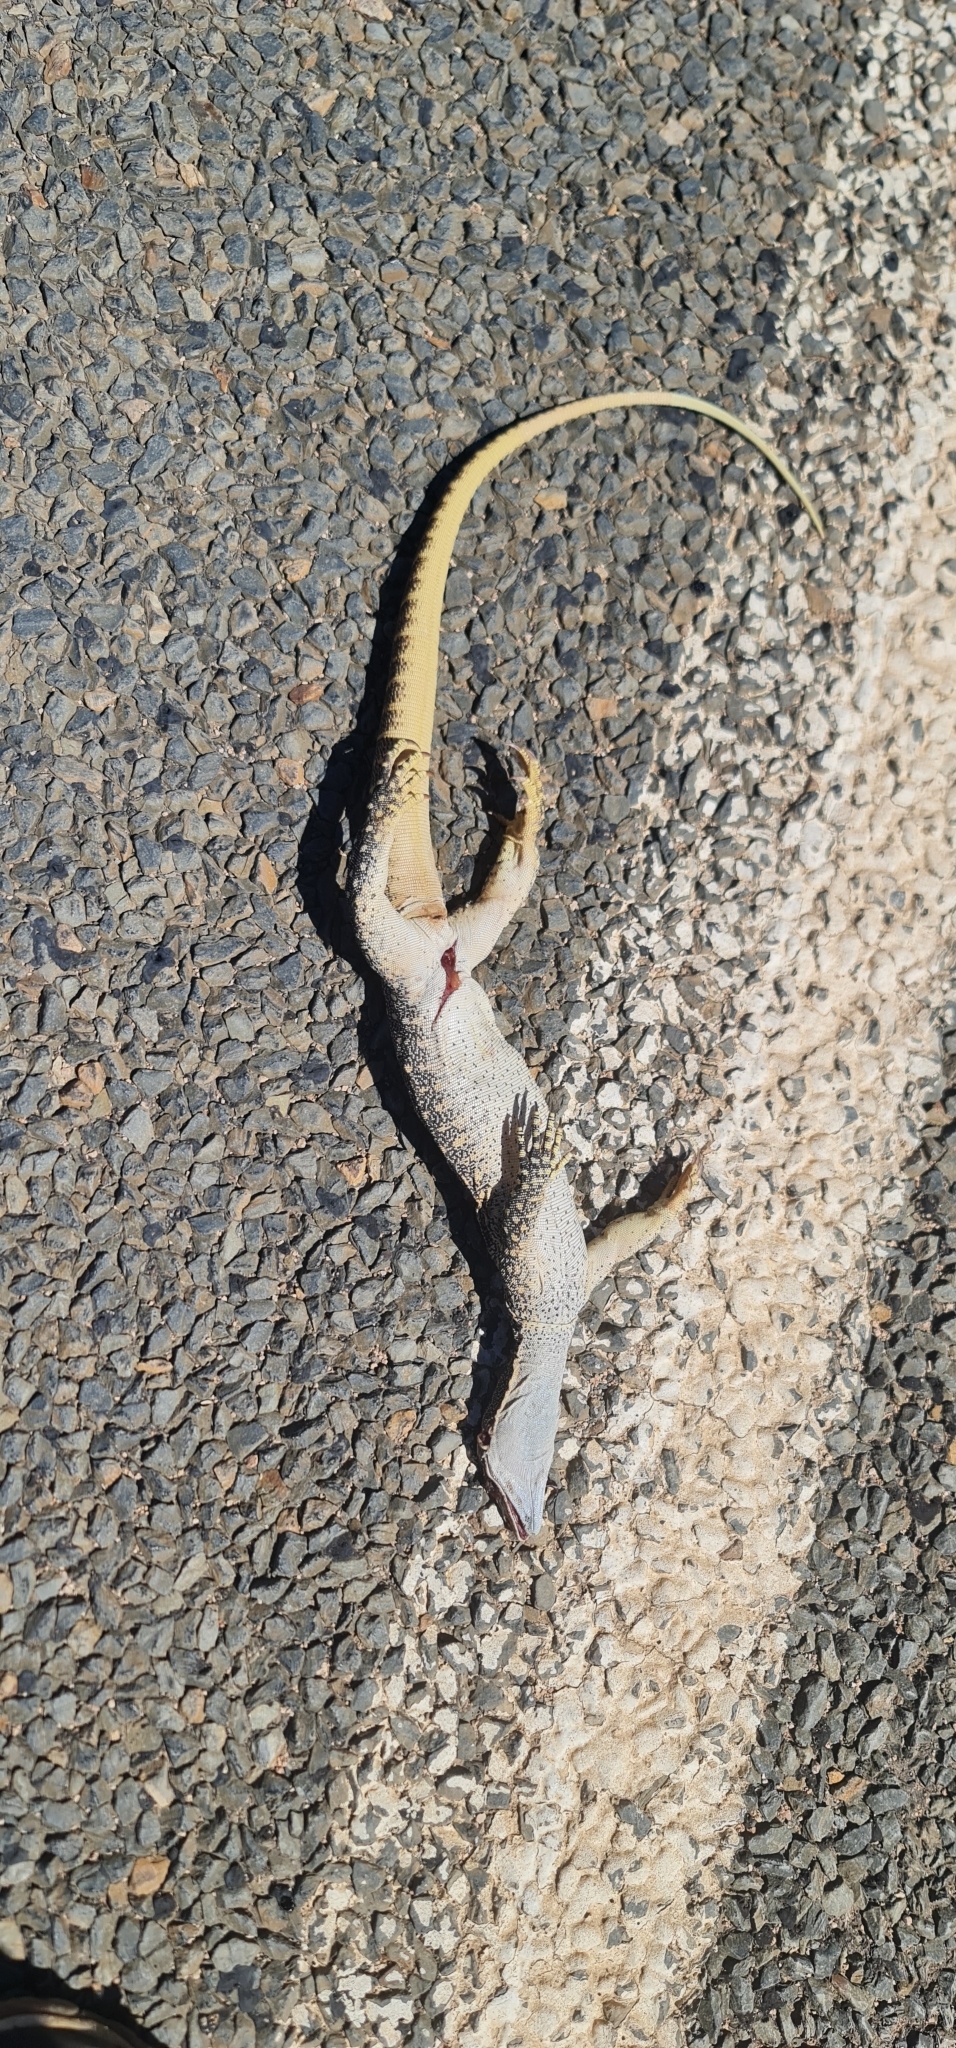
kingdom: Animalia
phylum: Chordata
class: Squamata
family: Varanidae
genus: Varanus
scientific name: Varanus gouldii
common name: Gould's goanna
